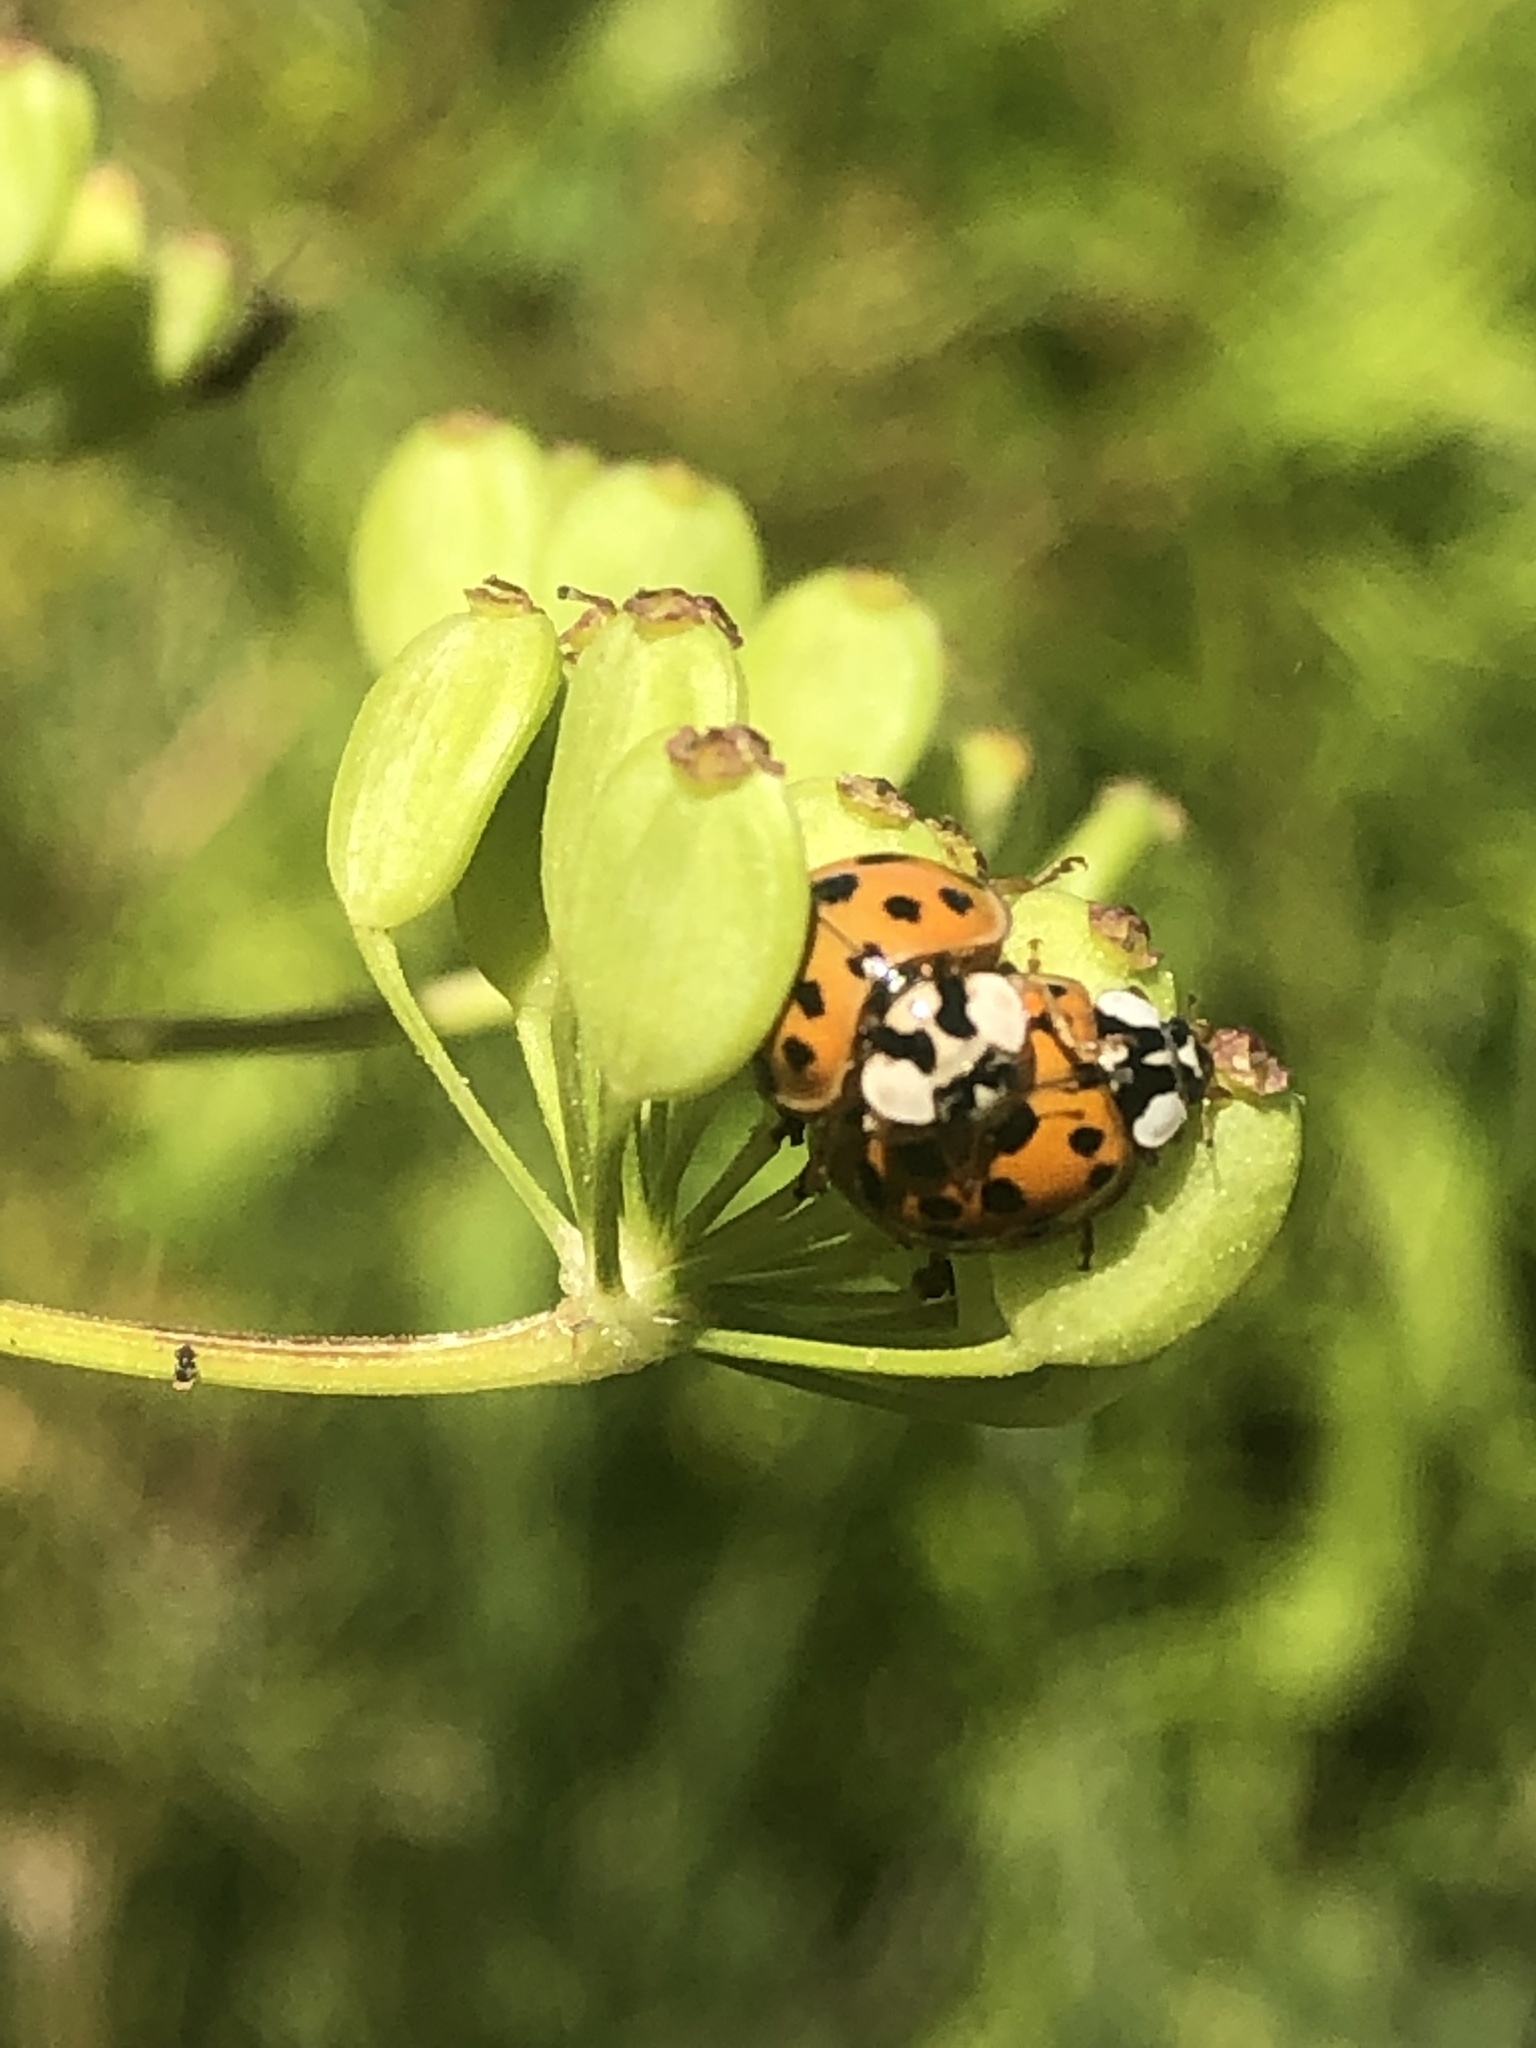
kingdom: Animalia
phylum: Arthropoda
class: Insecta
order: Coleoptera
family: Coccinellidae
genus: Harmonia
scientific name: Harmonia axyridis
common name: Harlequin ladybird
